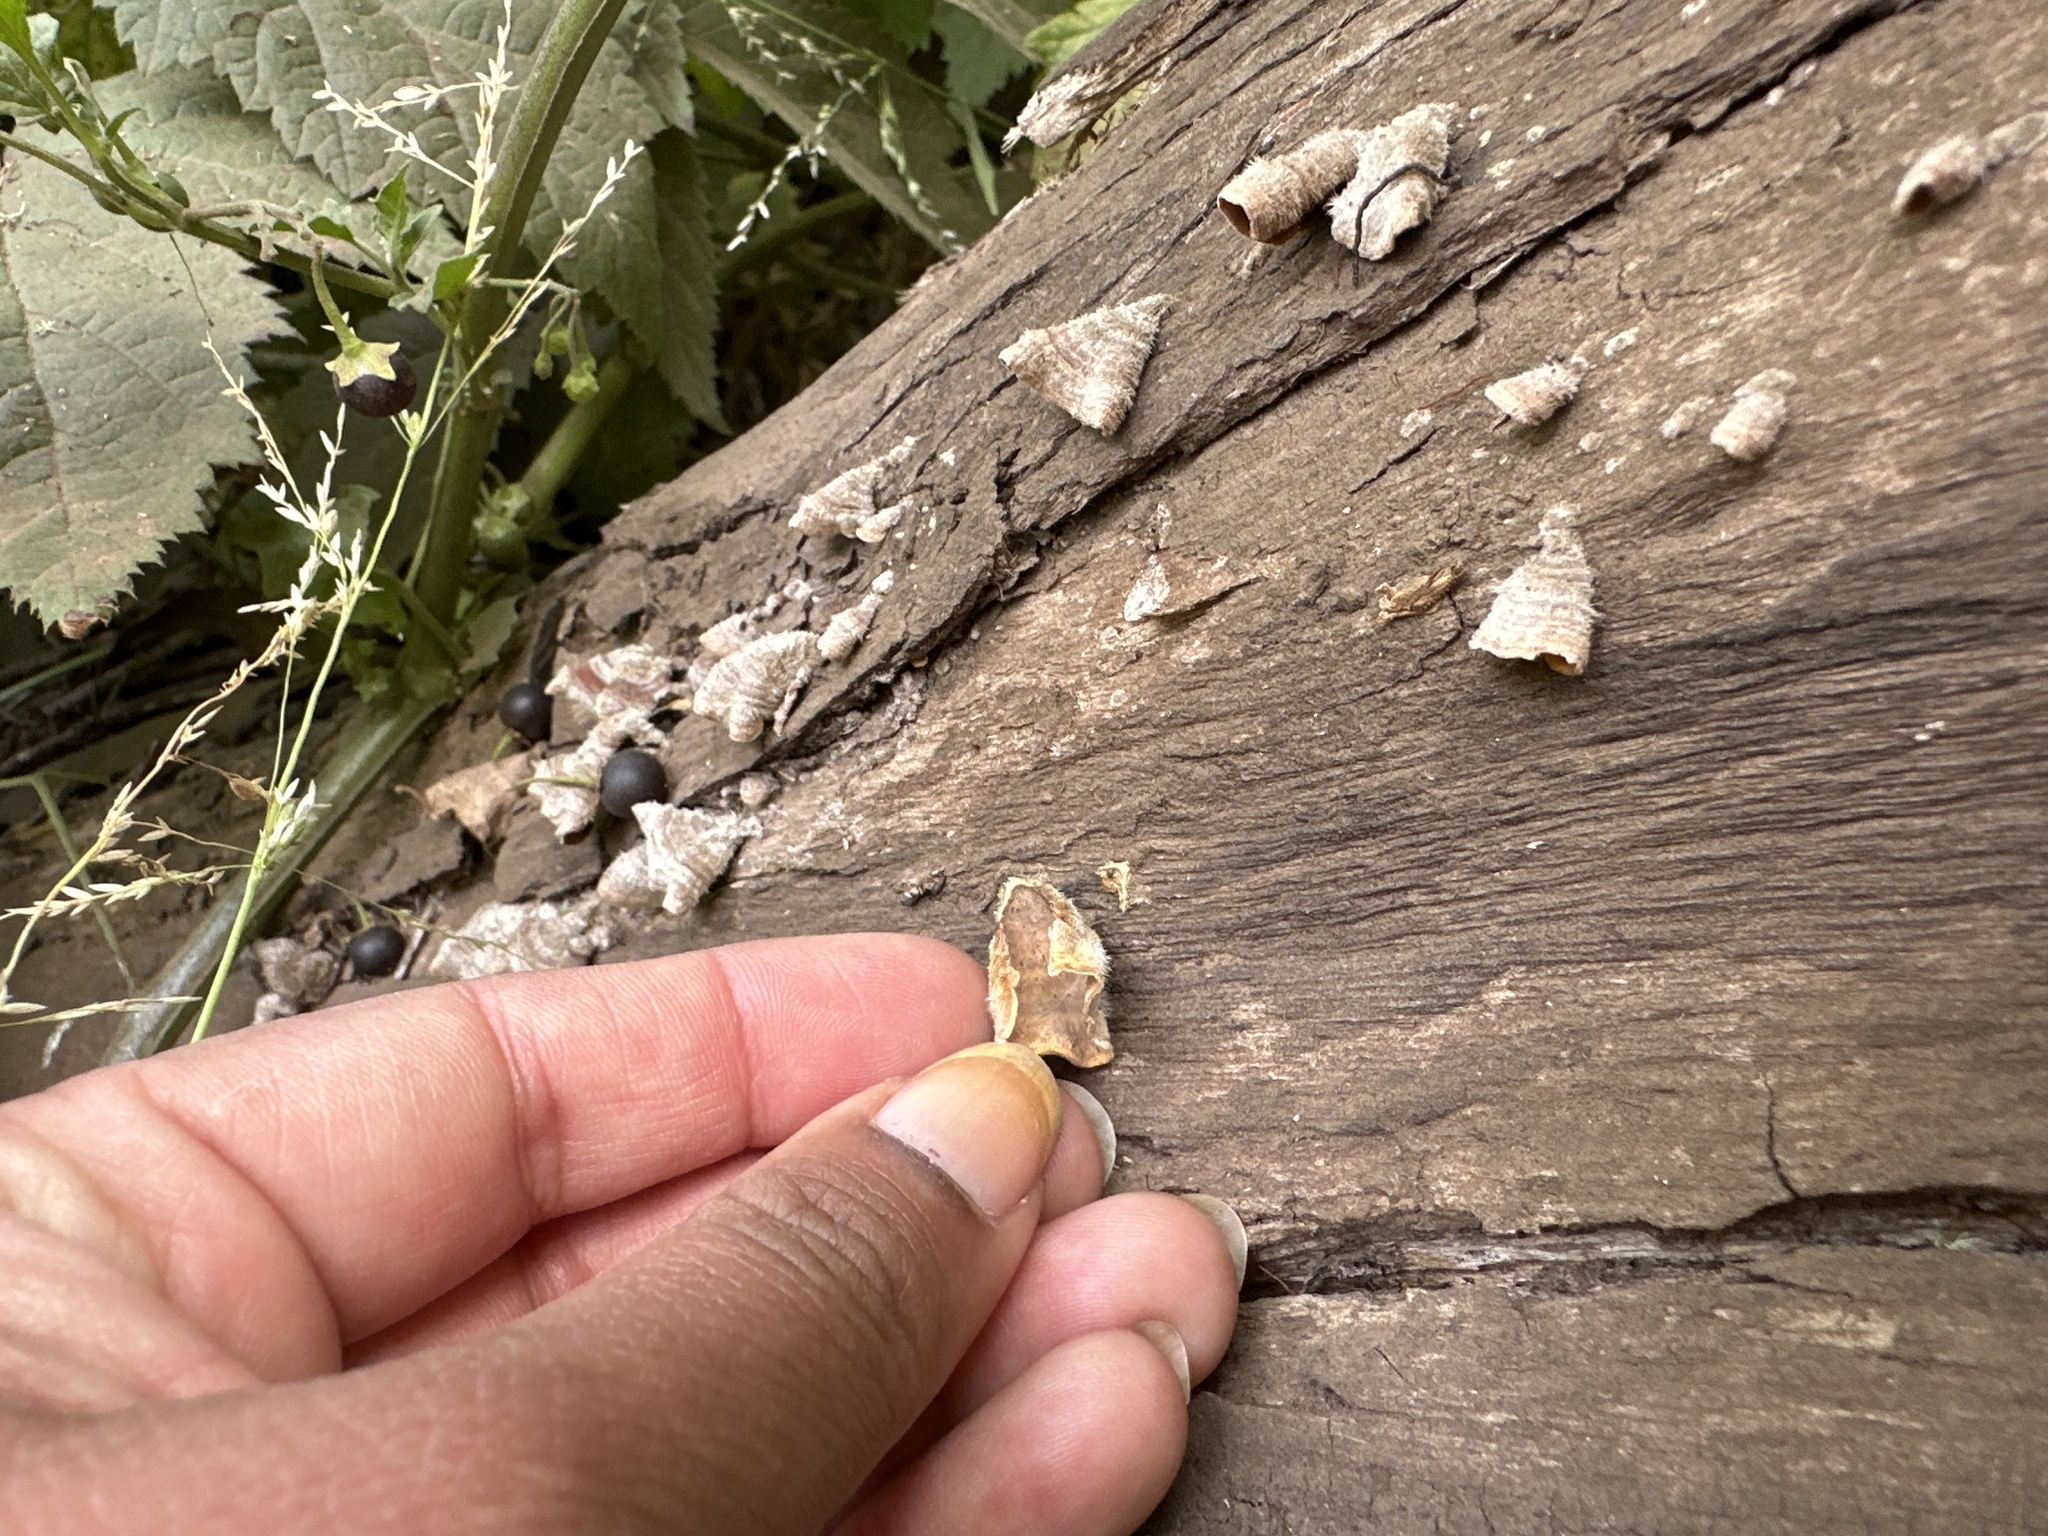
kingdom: Fungi
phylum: Basidiomycota
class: Agaricomycetes
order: Russulales
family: Stereaceae
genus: Stereum
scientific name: Stereum hirsutum
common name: Hairy curtain crust
